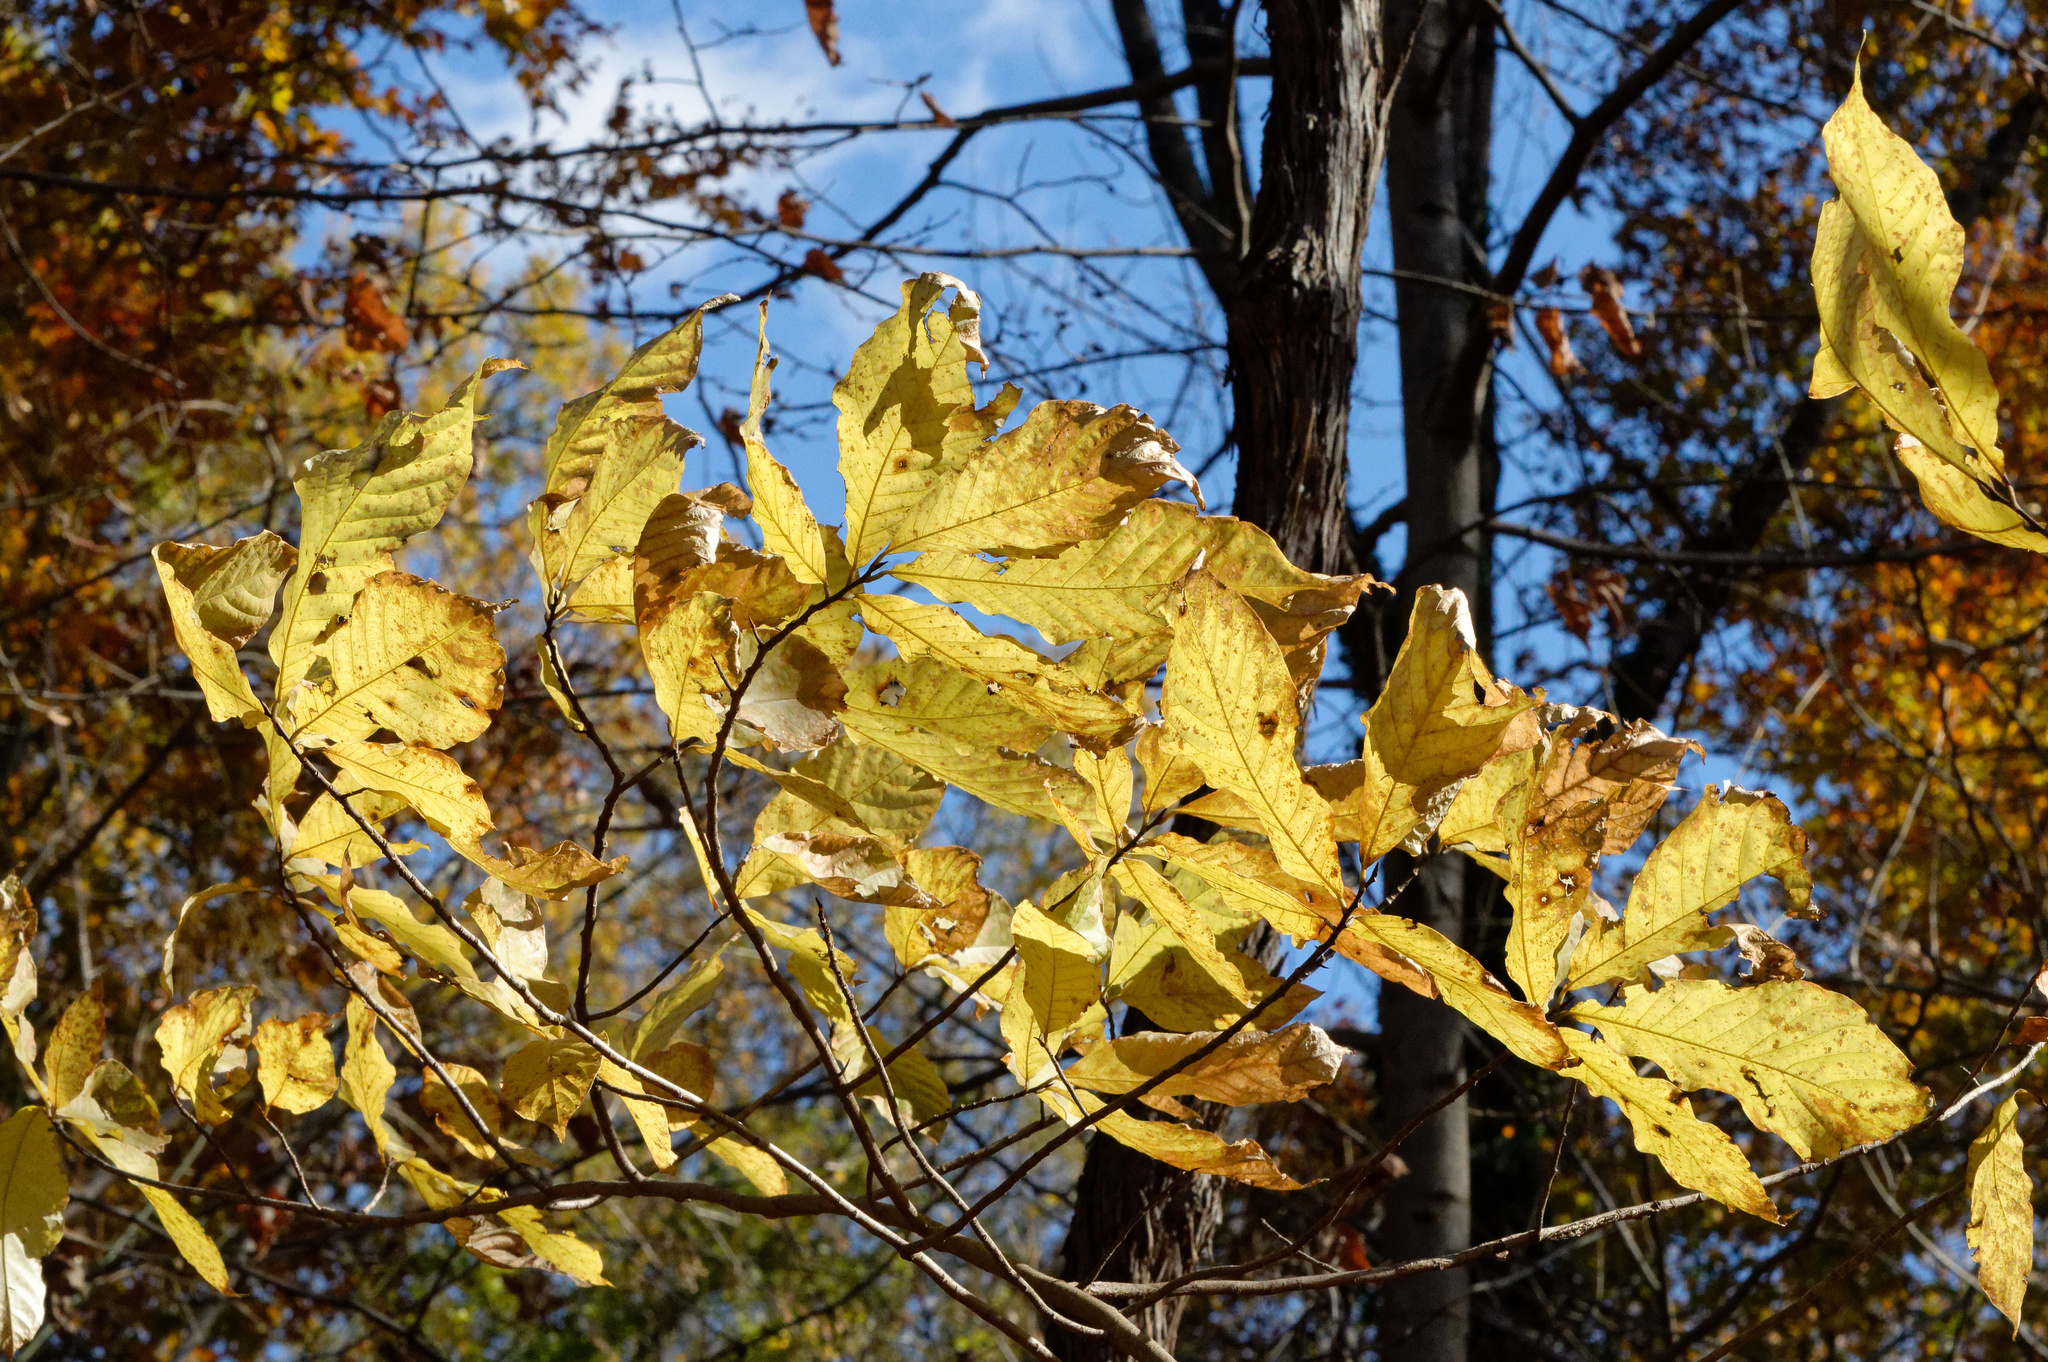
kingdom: Plantae
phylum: Tracheophyta
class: Magnoliopsida
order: Magnoliales
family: Annonaceae
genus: Asimina
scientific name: Asimina triloba
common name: Dog-banana
